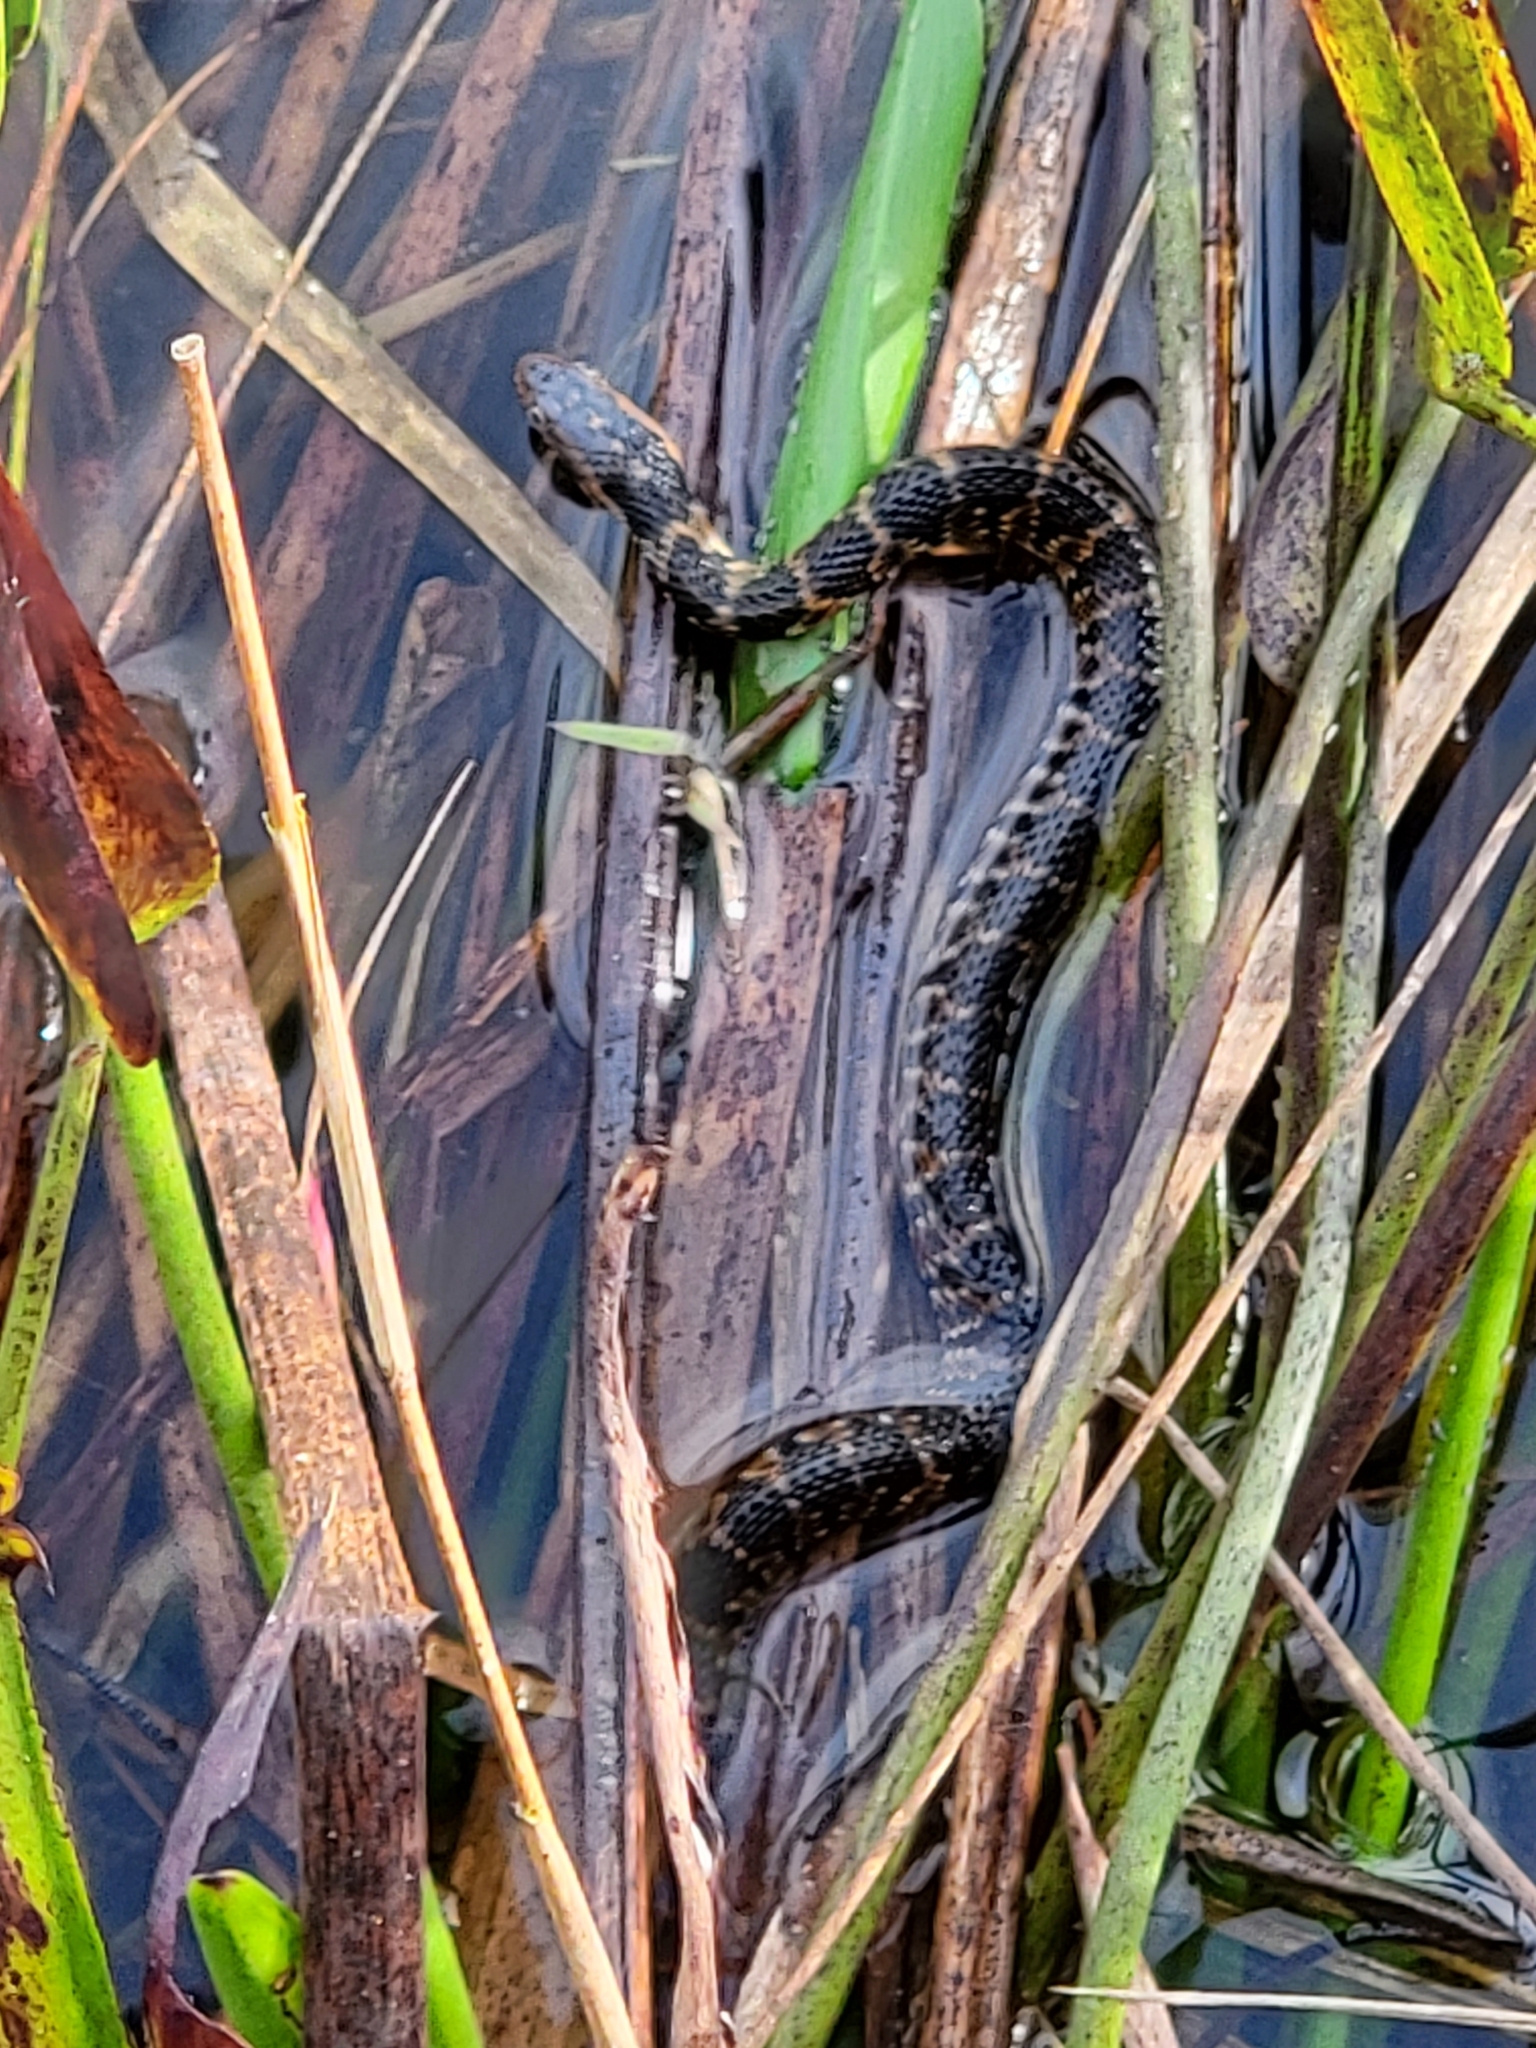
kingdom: Animalia
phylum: Chordata
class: Squamata
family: Colubridae
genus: Nerodia
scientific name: Nerodia fasciata
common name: Southern water snake
